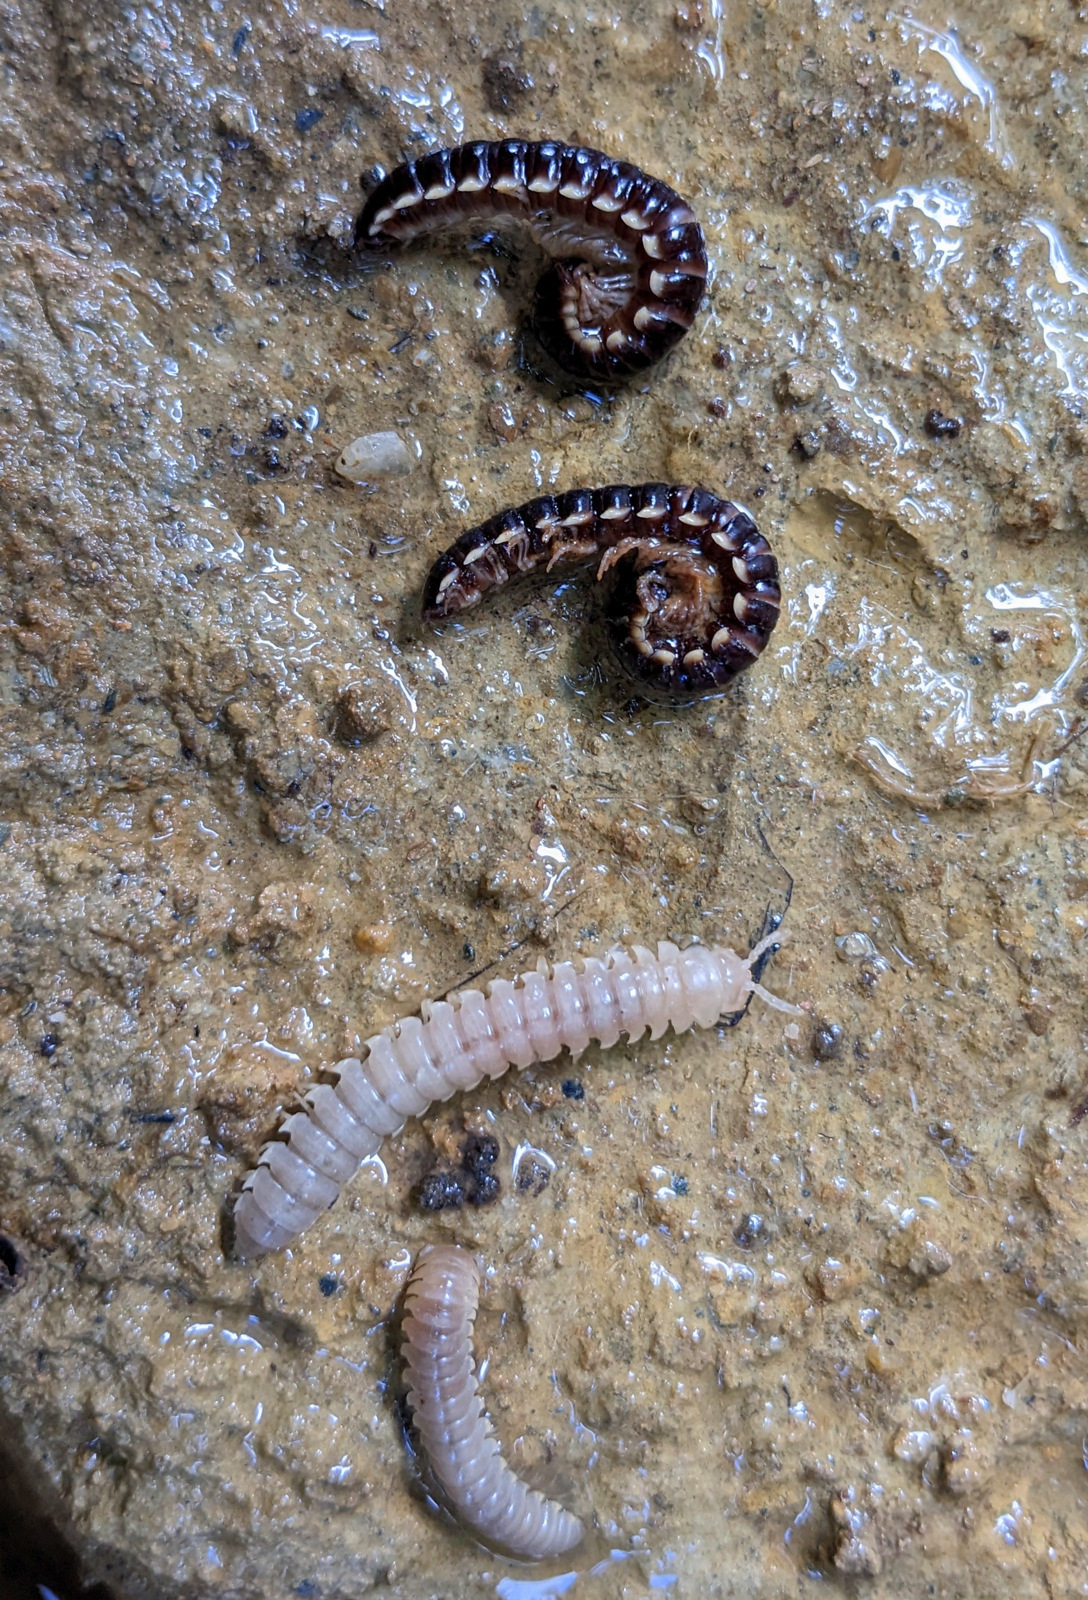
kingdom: Animalia
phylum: Arthropoda
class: Diplopoda
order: Polydesmida
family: Paradoxosomatidae
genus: Orthomorpha
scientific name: Orthomorpha coarctata
